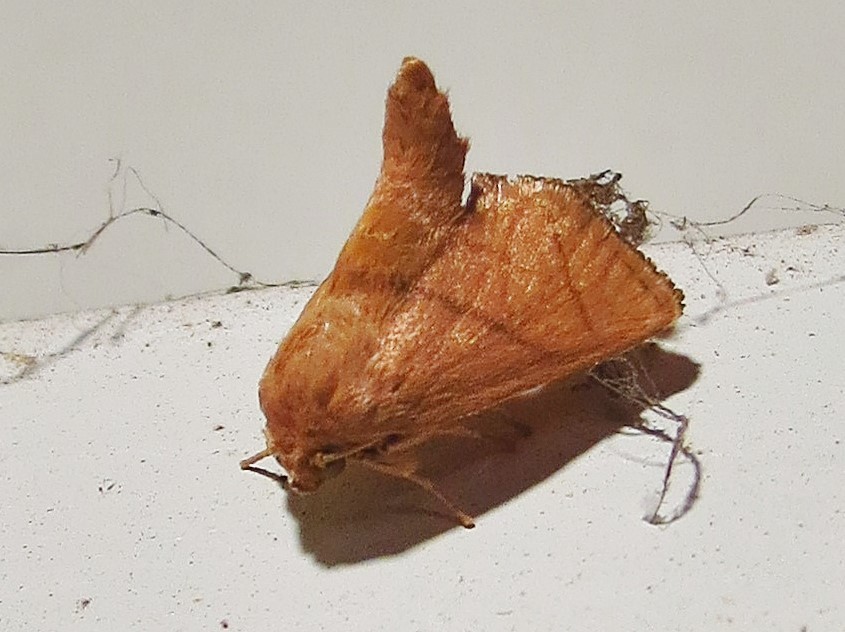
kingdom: Animalia
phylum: Arthropoda
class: Insecta
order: Lepidoptera
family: Limacodidae
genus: Apoda
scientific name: Apoda y-inversa
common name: Yellow-collared slug moth
